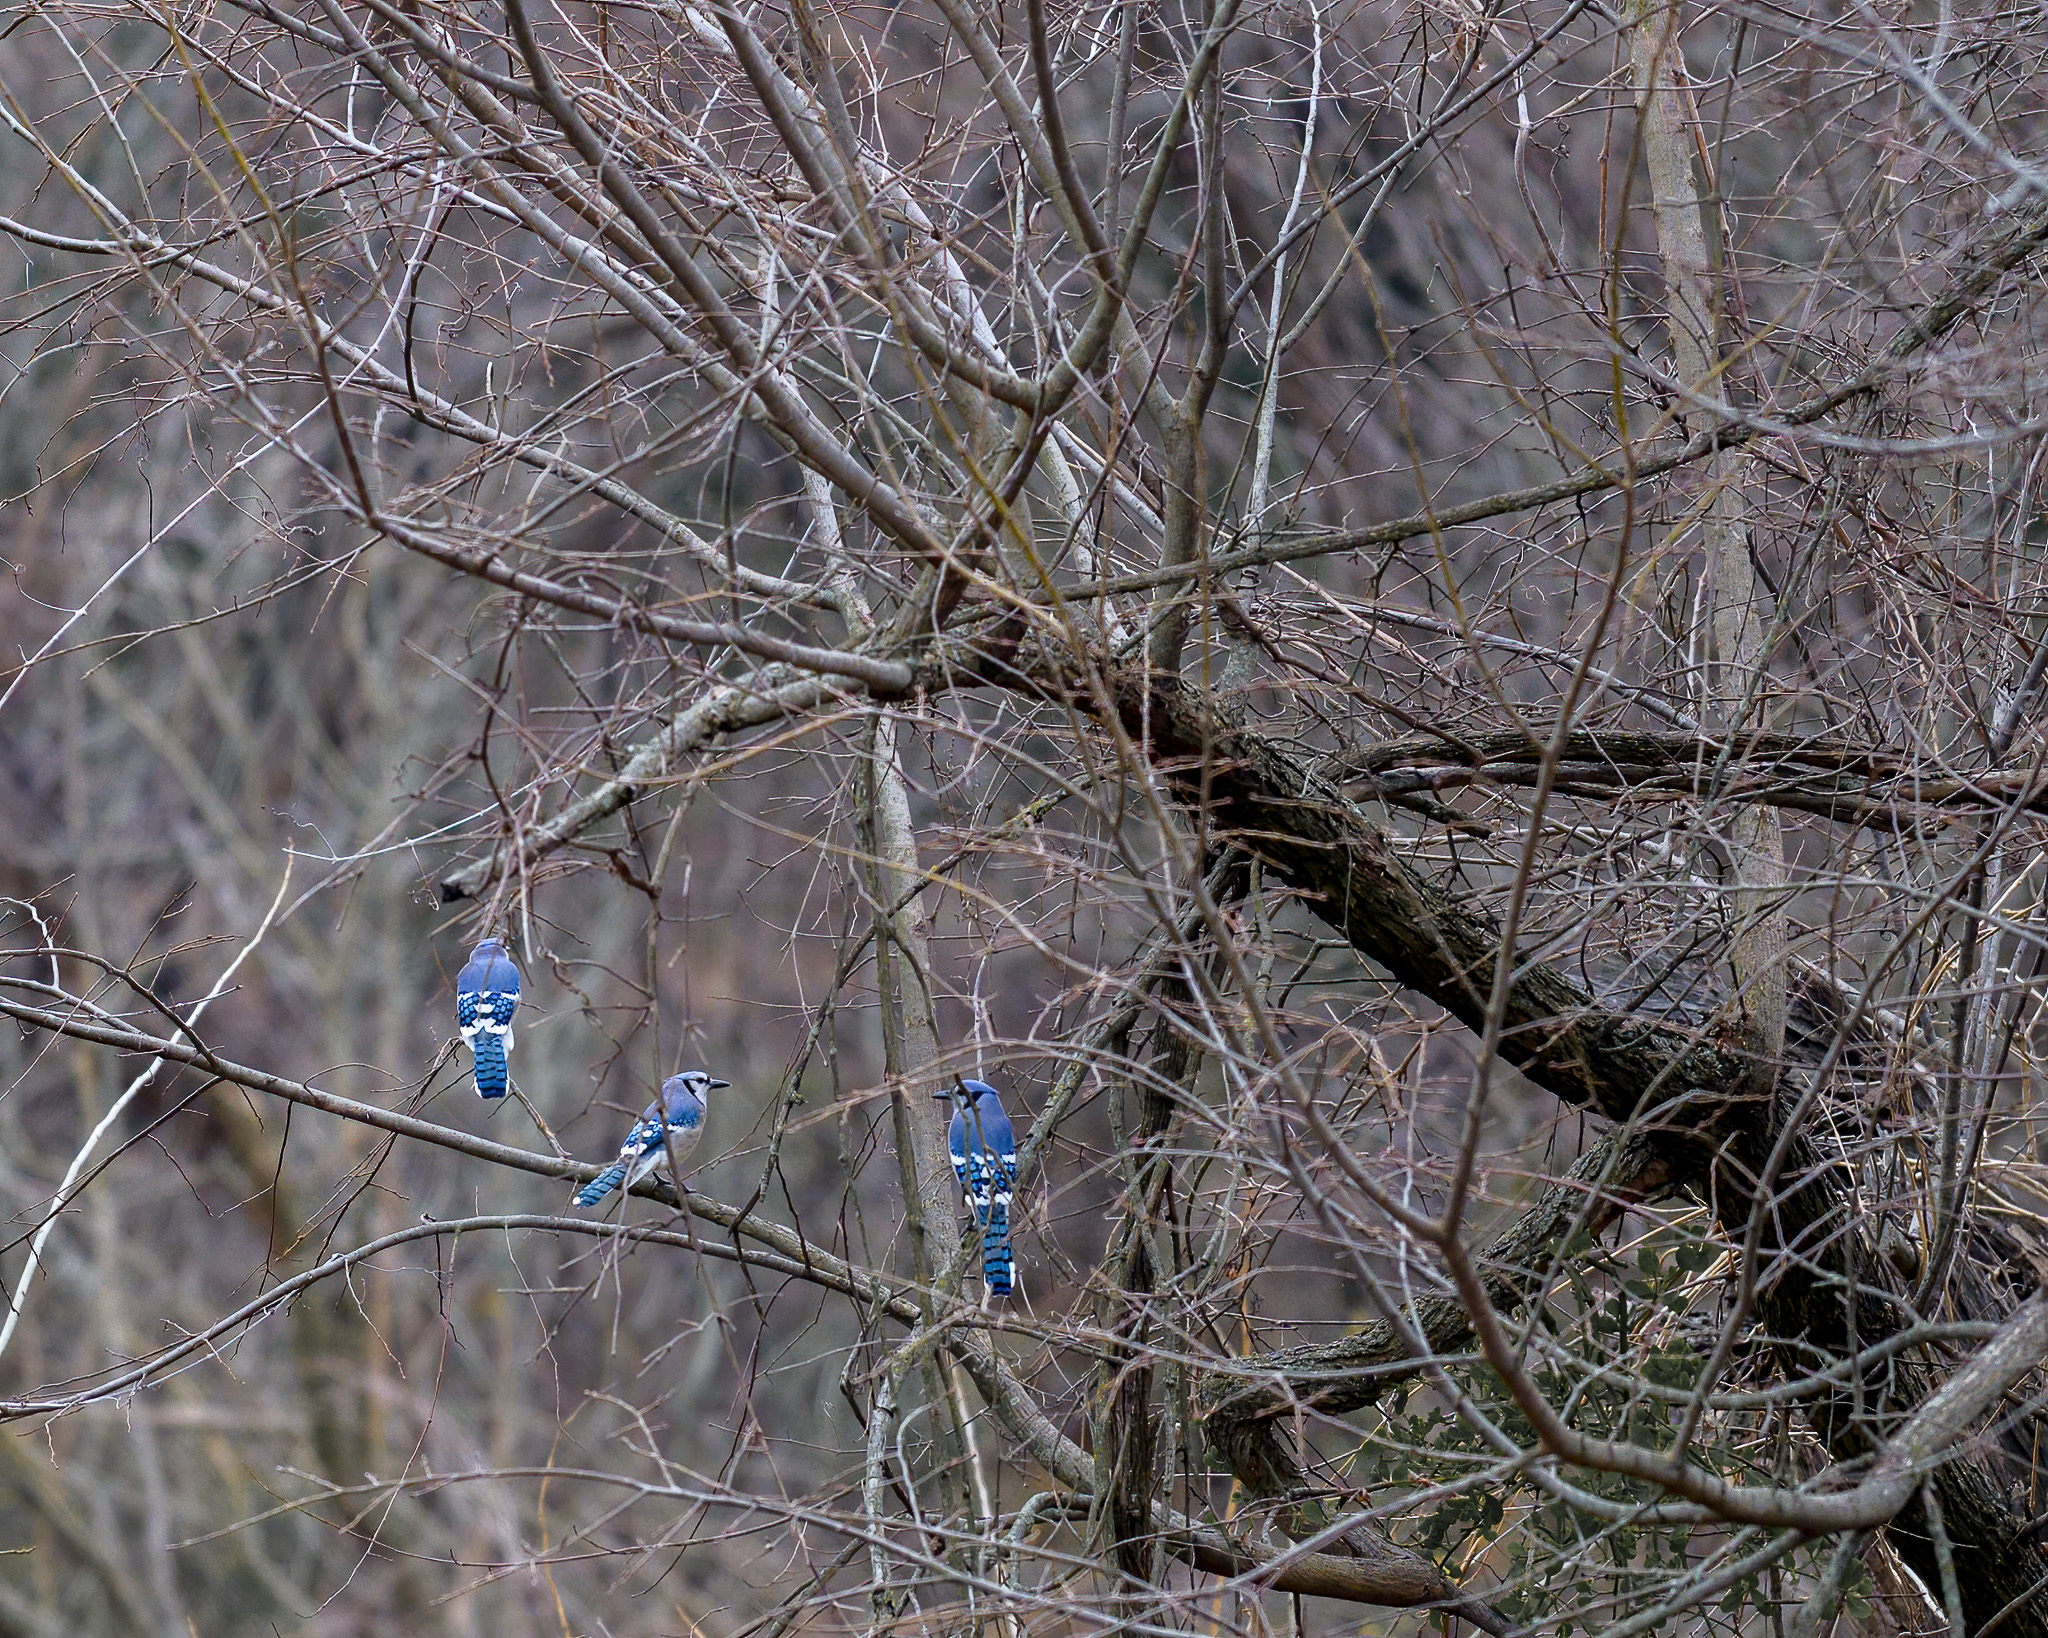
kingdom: Animalia
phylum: Chordata
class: Aves
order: Passeriformes
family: Corvidae
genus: Cyanocitta
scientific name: Cyanocitta cristata
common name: Blue jay
